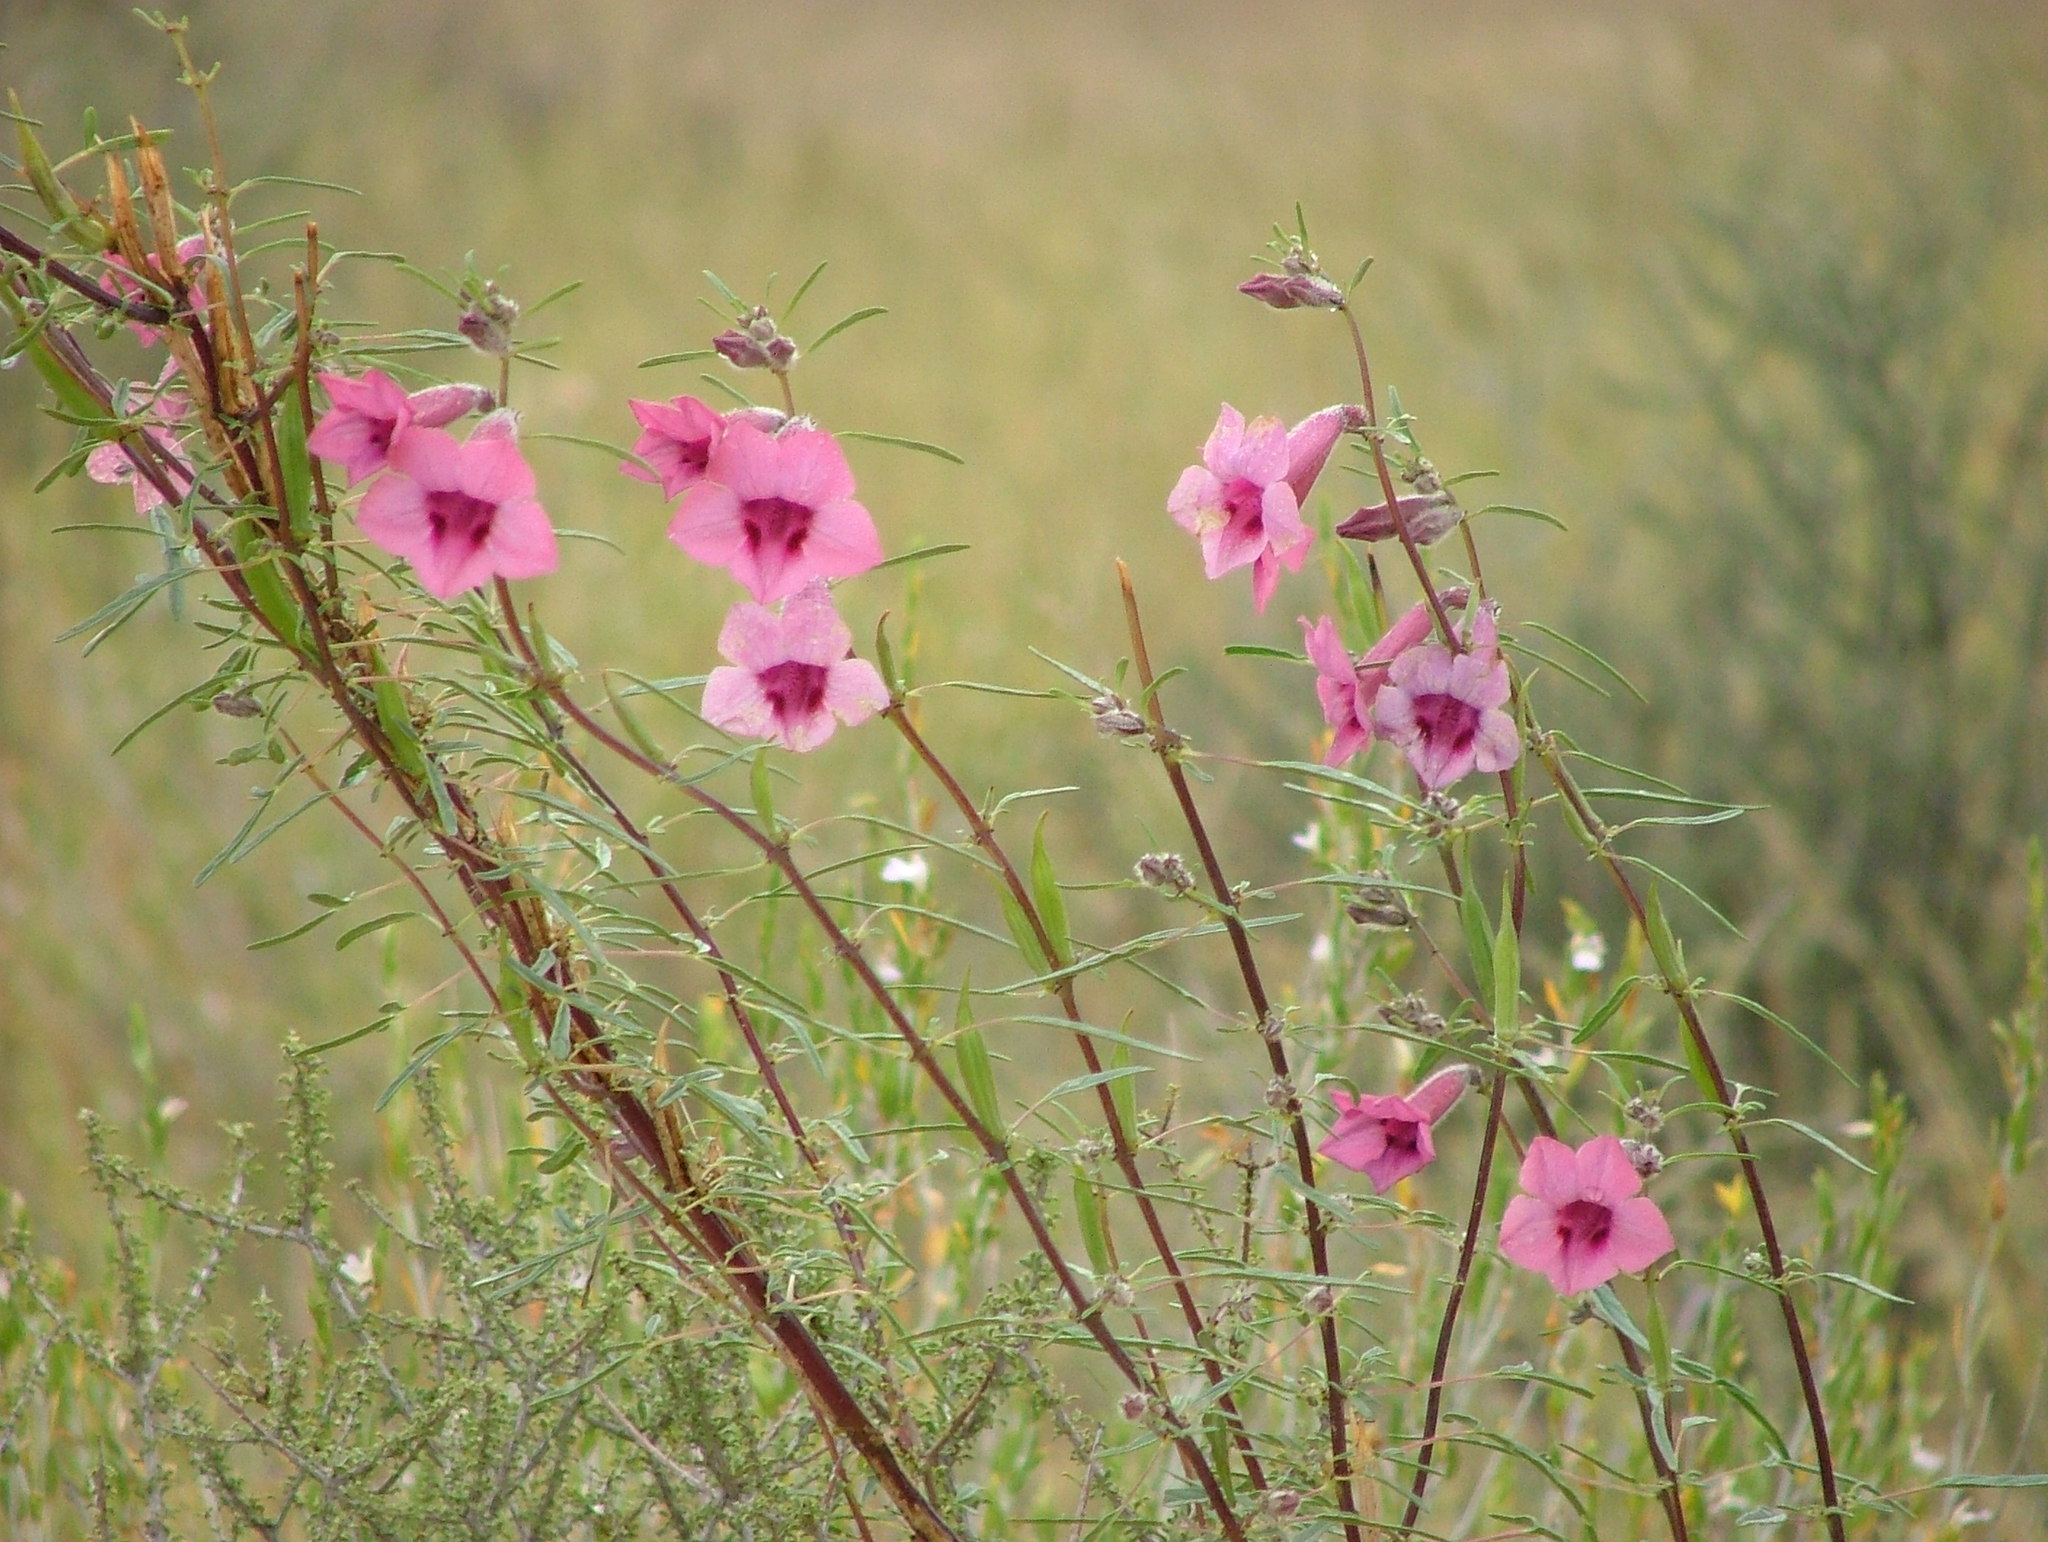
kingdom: Plantae
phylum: Tracheophyta
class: Magnoliopsida
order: Lamiales
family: Pedaliaceae
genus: Sesamum
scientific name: Sesamum triphyllum
